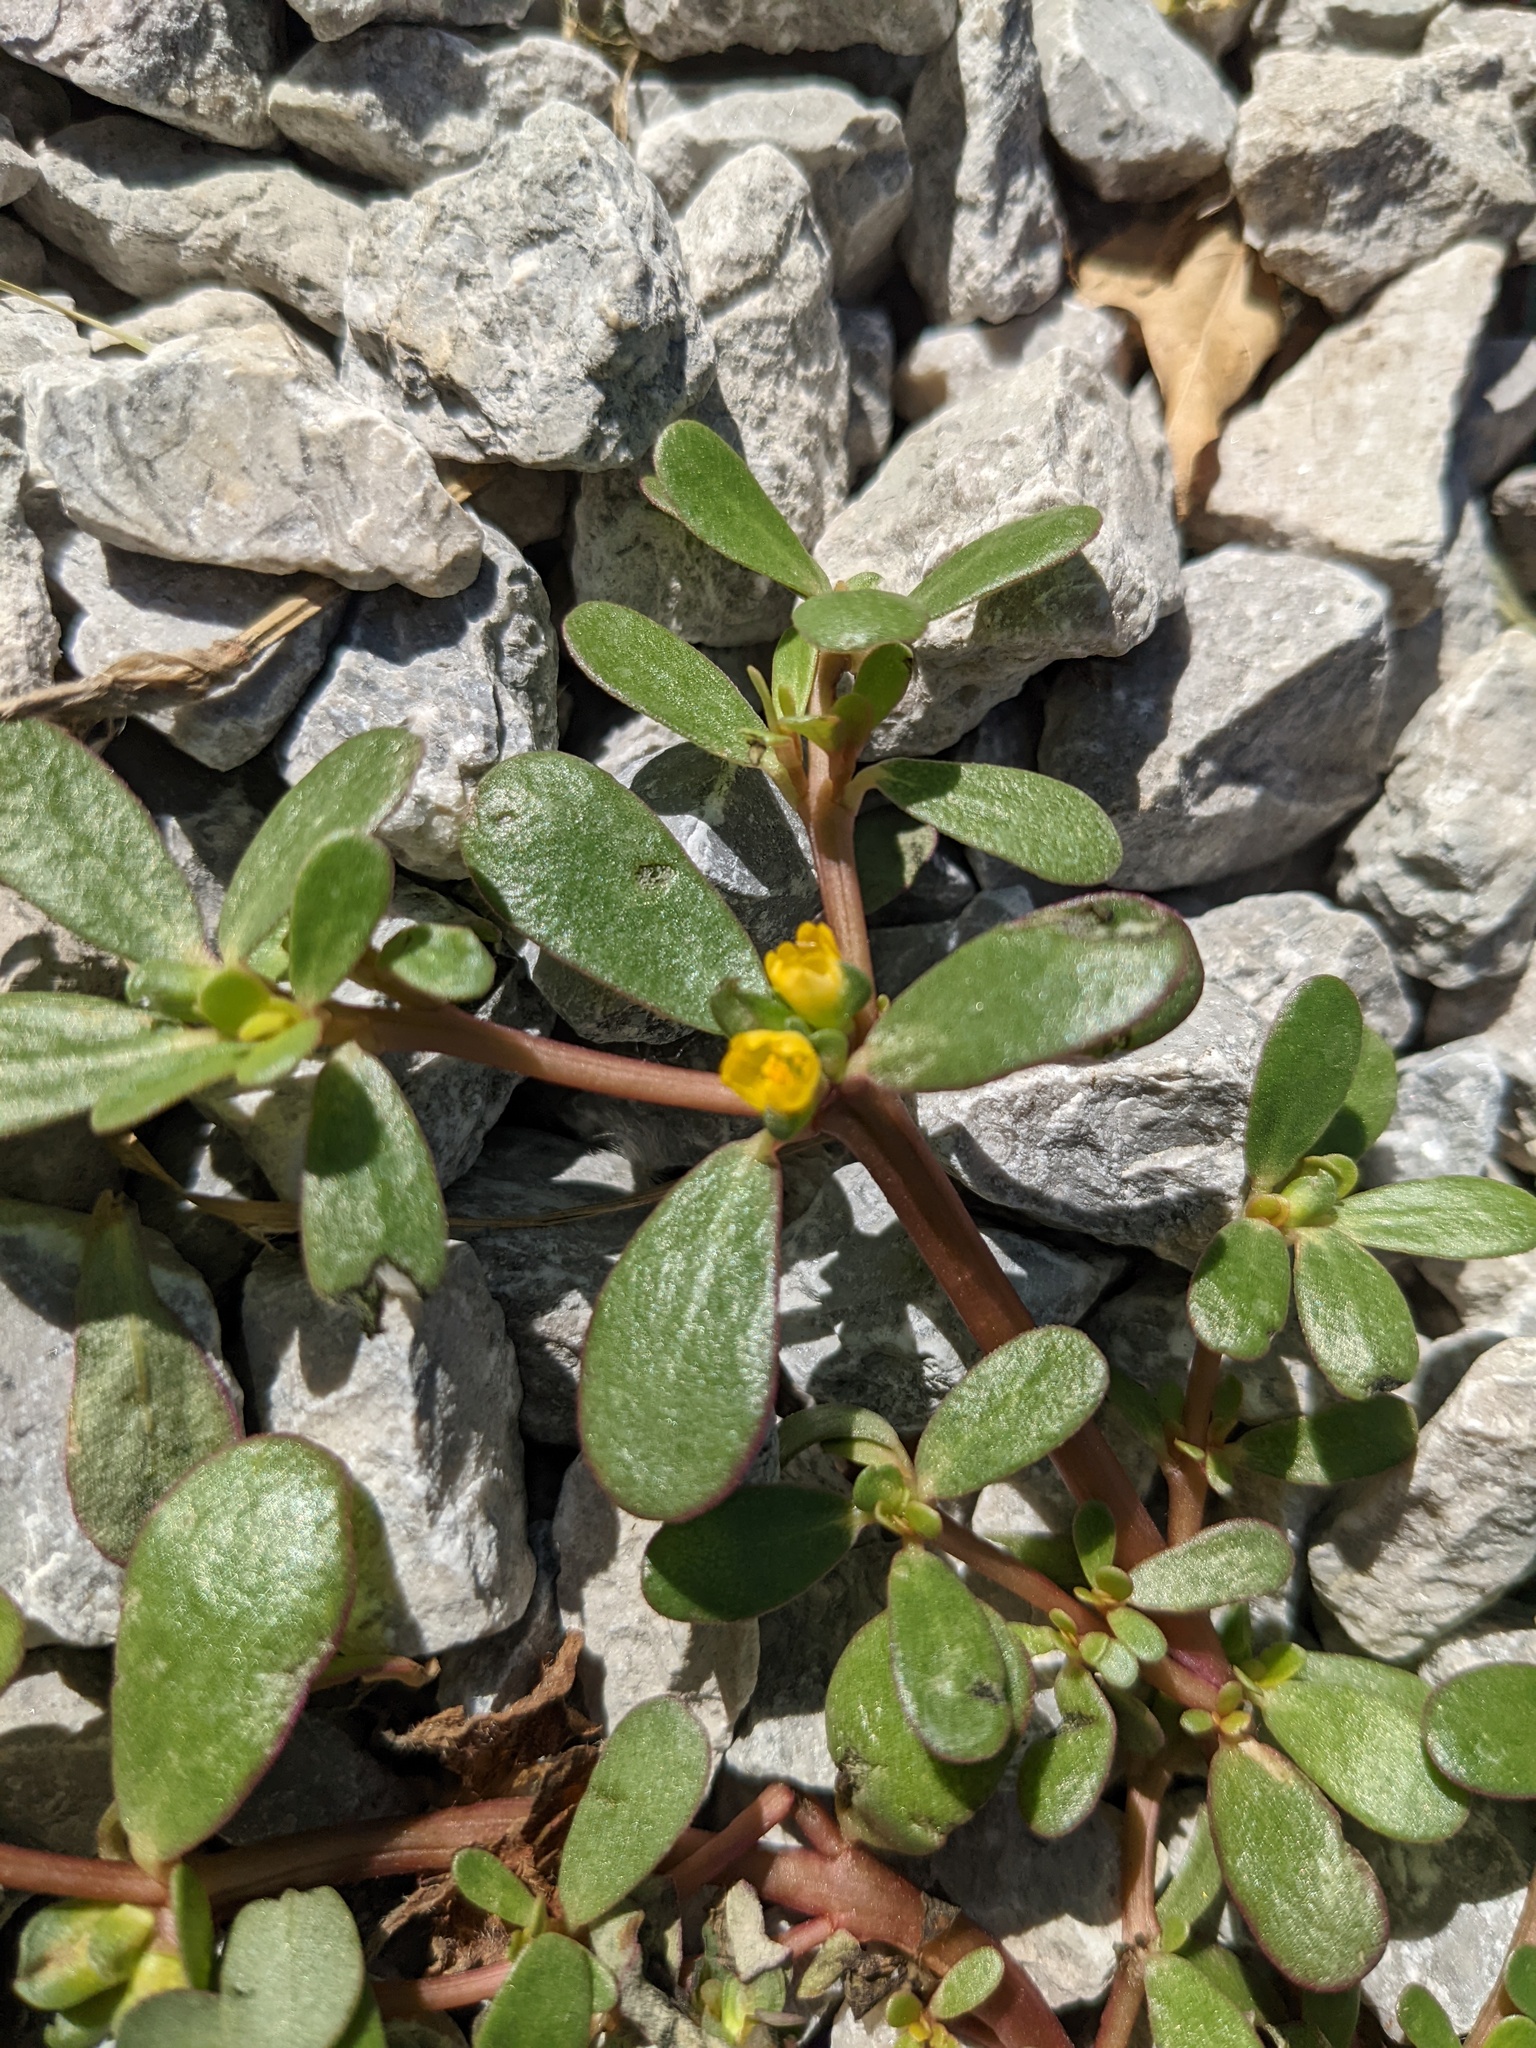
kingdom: Plantae
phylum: Tracheophyta
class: Magnoliopsida
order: Caryophyllales
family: Portulacaceae
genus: Portulaca
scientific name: Portulaca oleracea
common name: Common purslane
